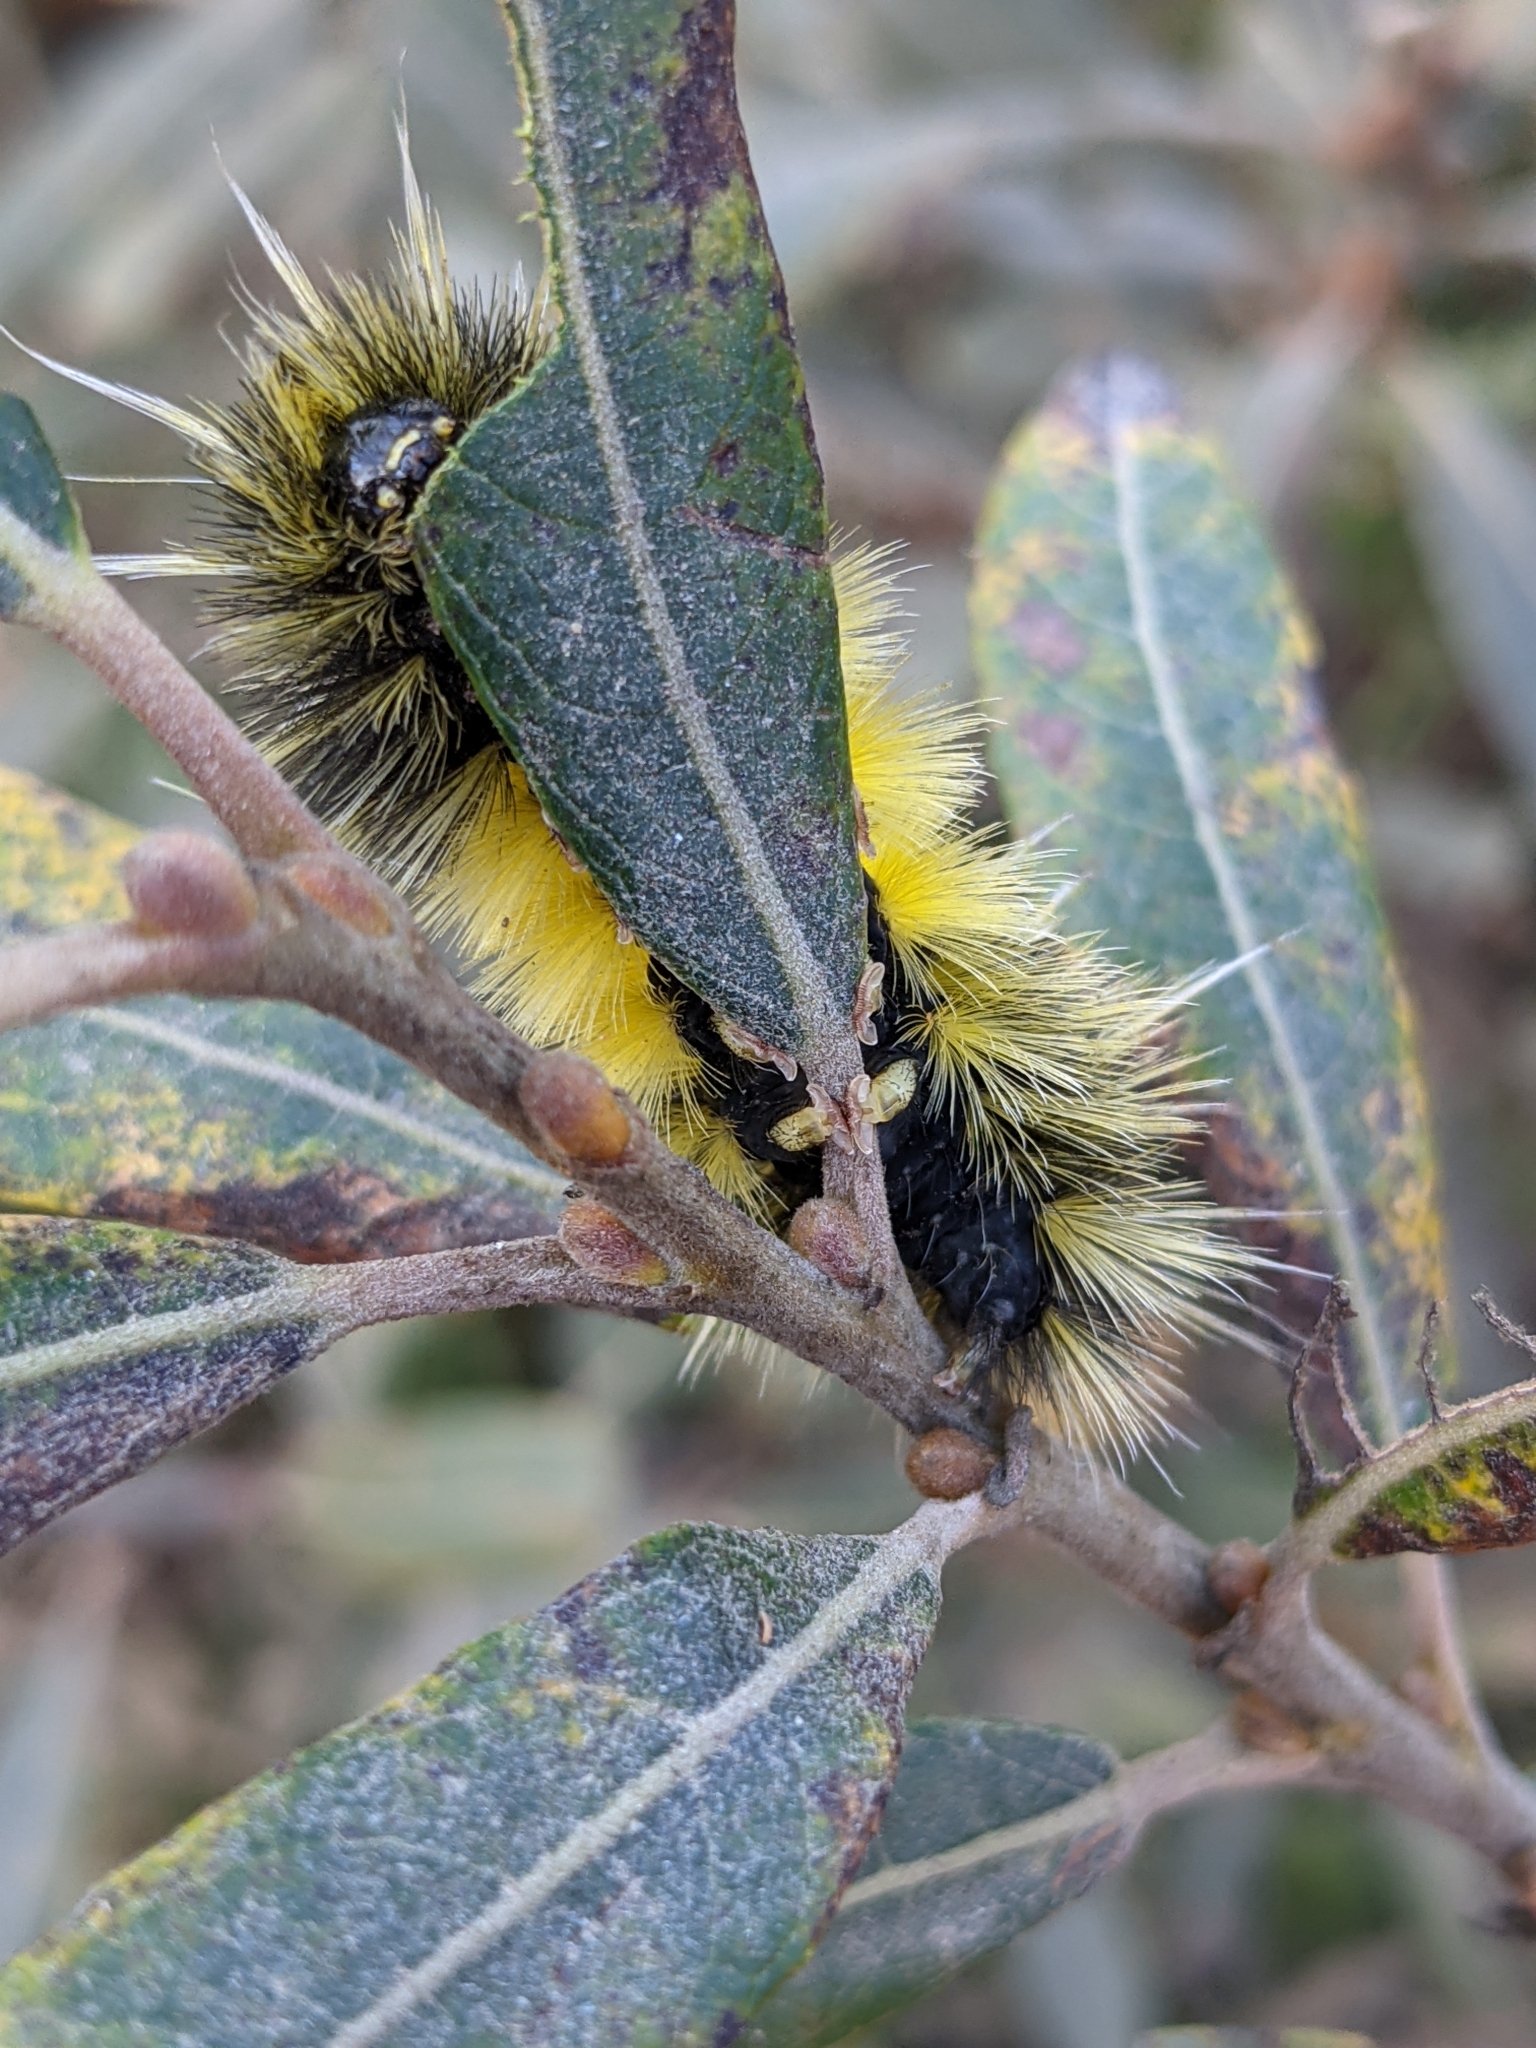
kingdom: Animalia
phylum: Arthropoda
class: Insecta
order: Lepidoptera
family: Erebidae
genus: Lophocampa
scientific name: Lophocampa maculata
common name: Spotted tussock moth
